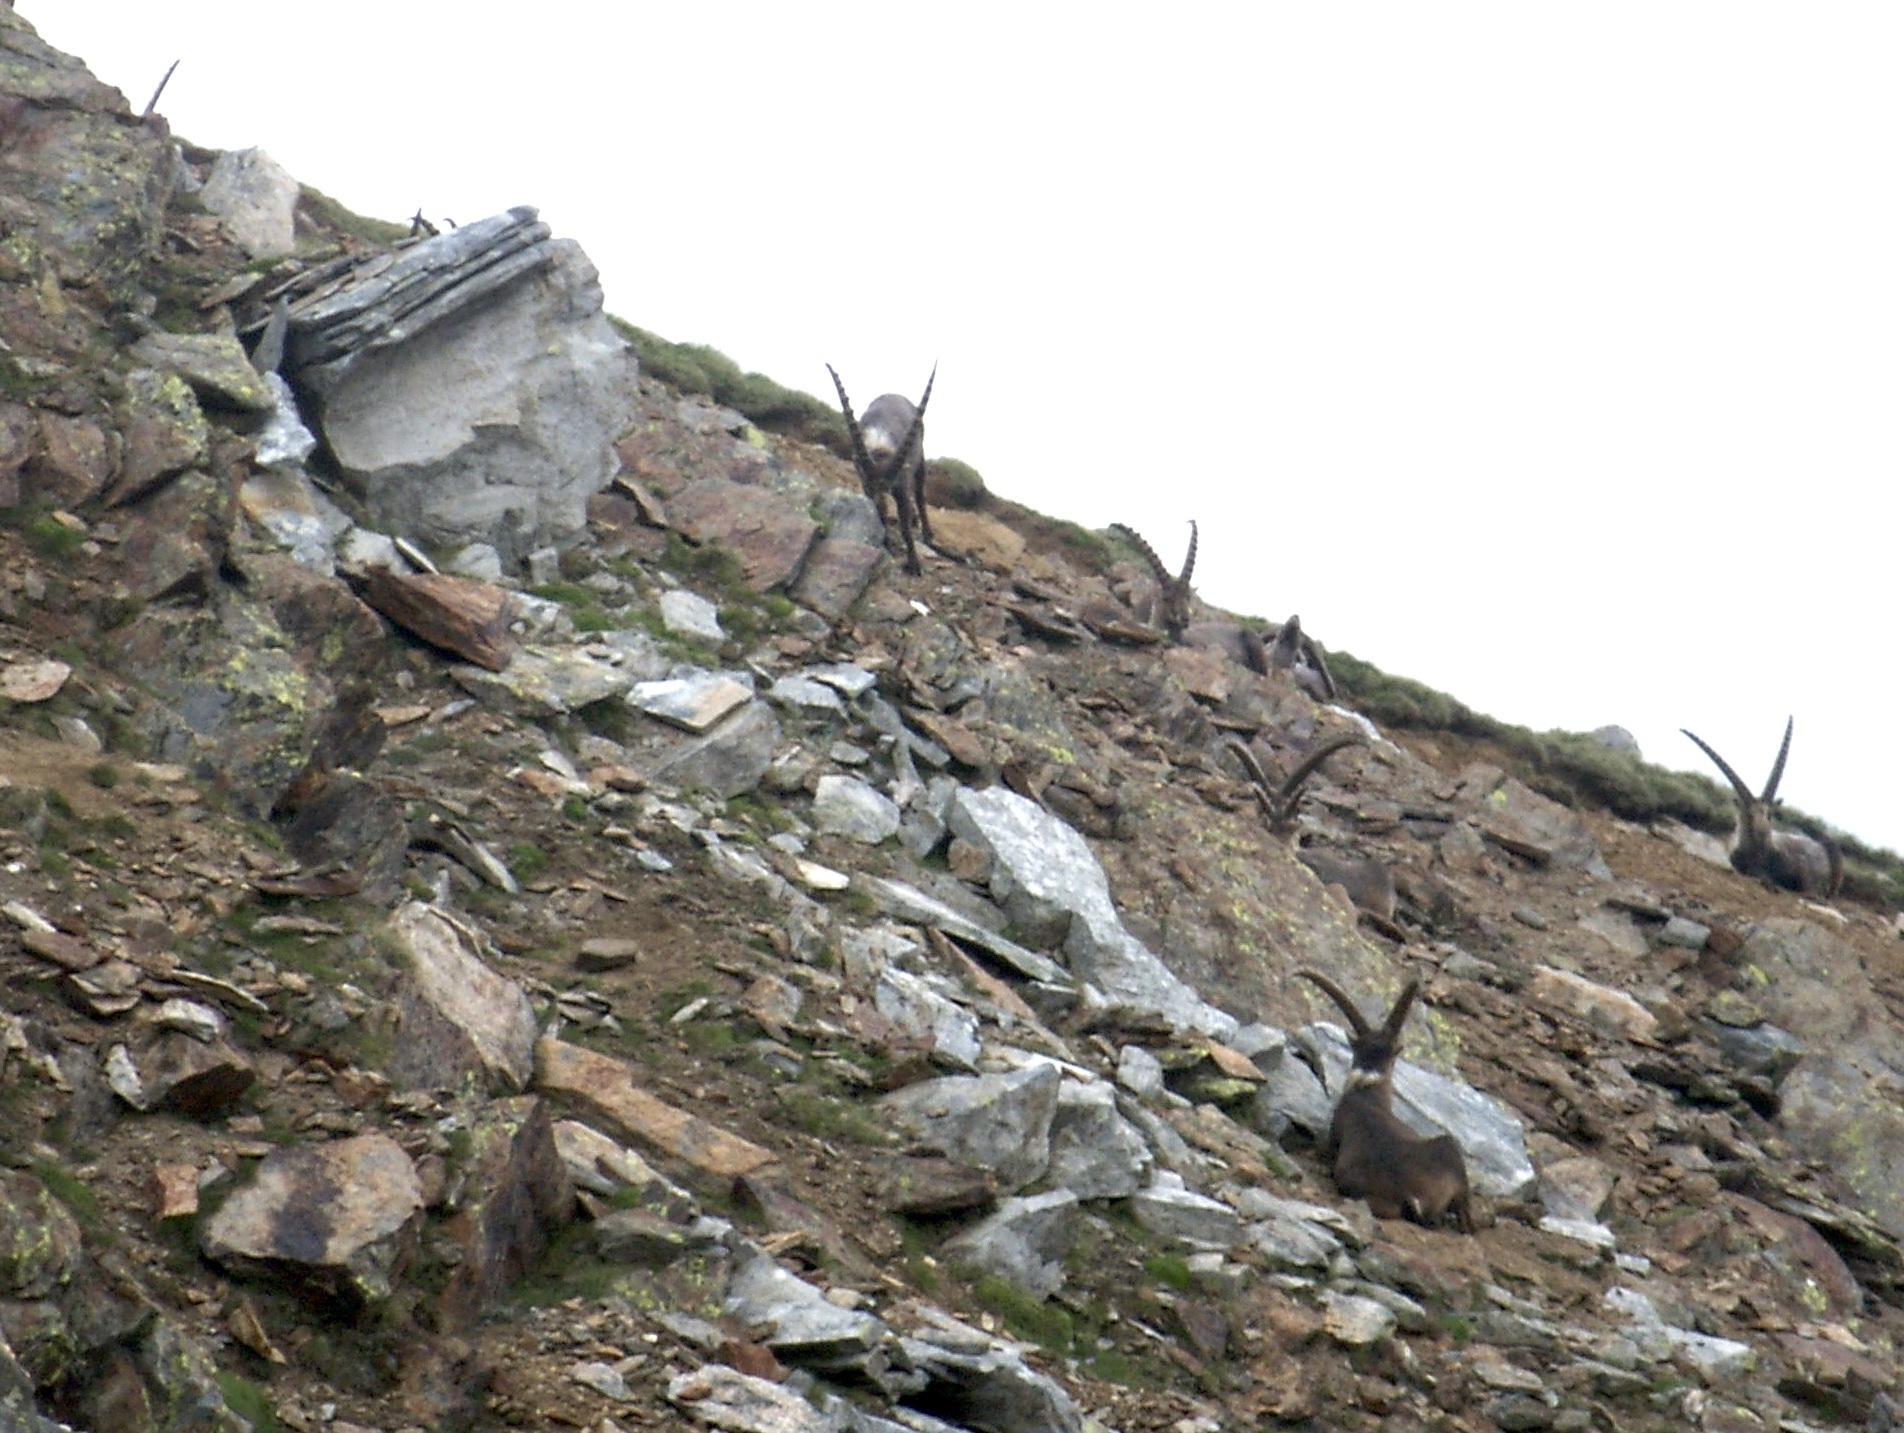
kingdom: Animalia
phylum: Chordata
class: Mammalia
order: Artiodactyla
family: Bovidae
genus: Capra
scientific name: Capra ibex
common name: Alpine ibex
